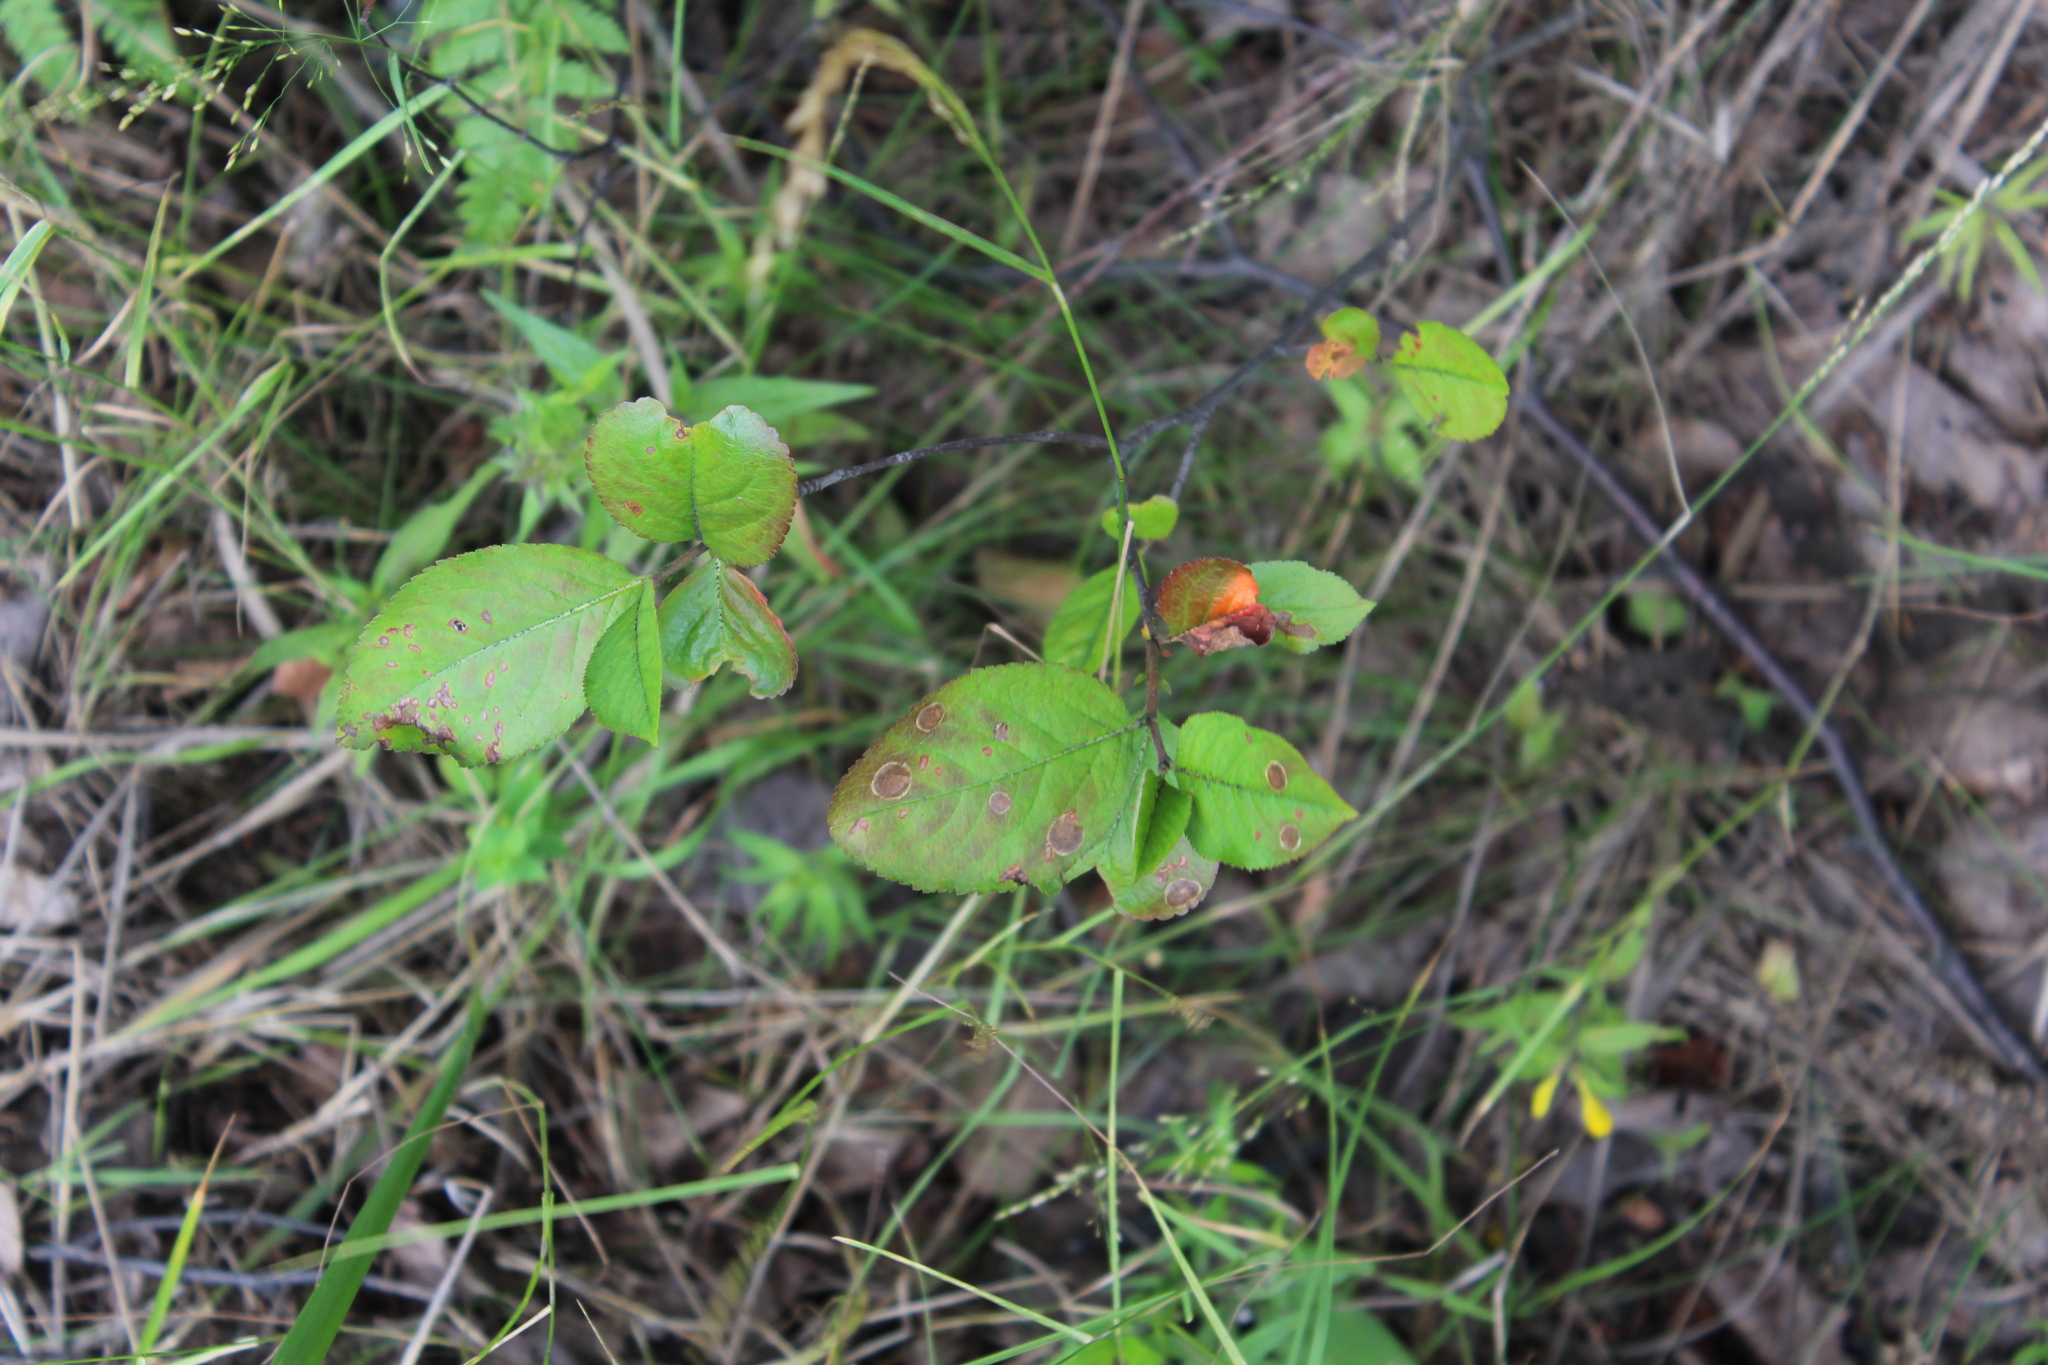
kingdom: Plantae
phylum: Tracheophyta
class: Magnoliopsida
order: Rosales
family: Rosaceae
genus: Sorbaronia
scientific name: Sorbaronia arsenii
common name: Arsène's mountain-ash
